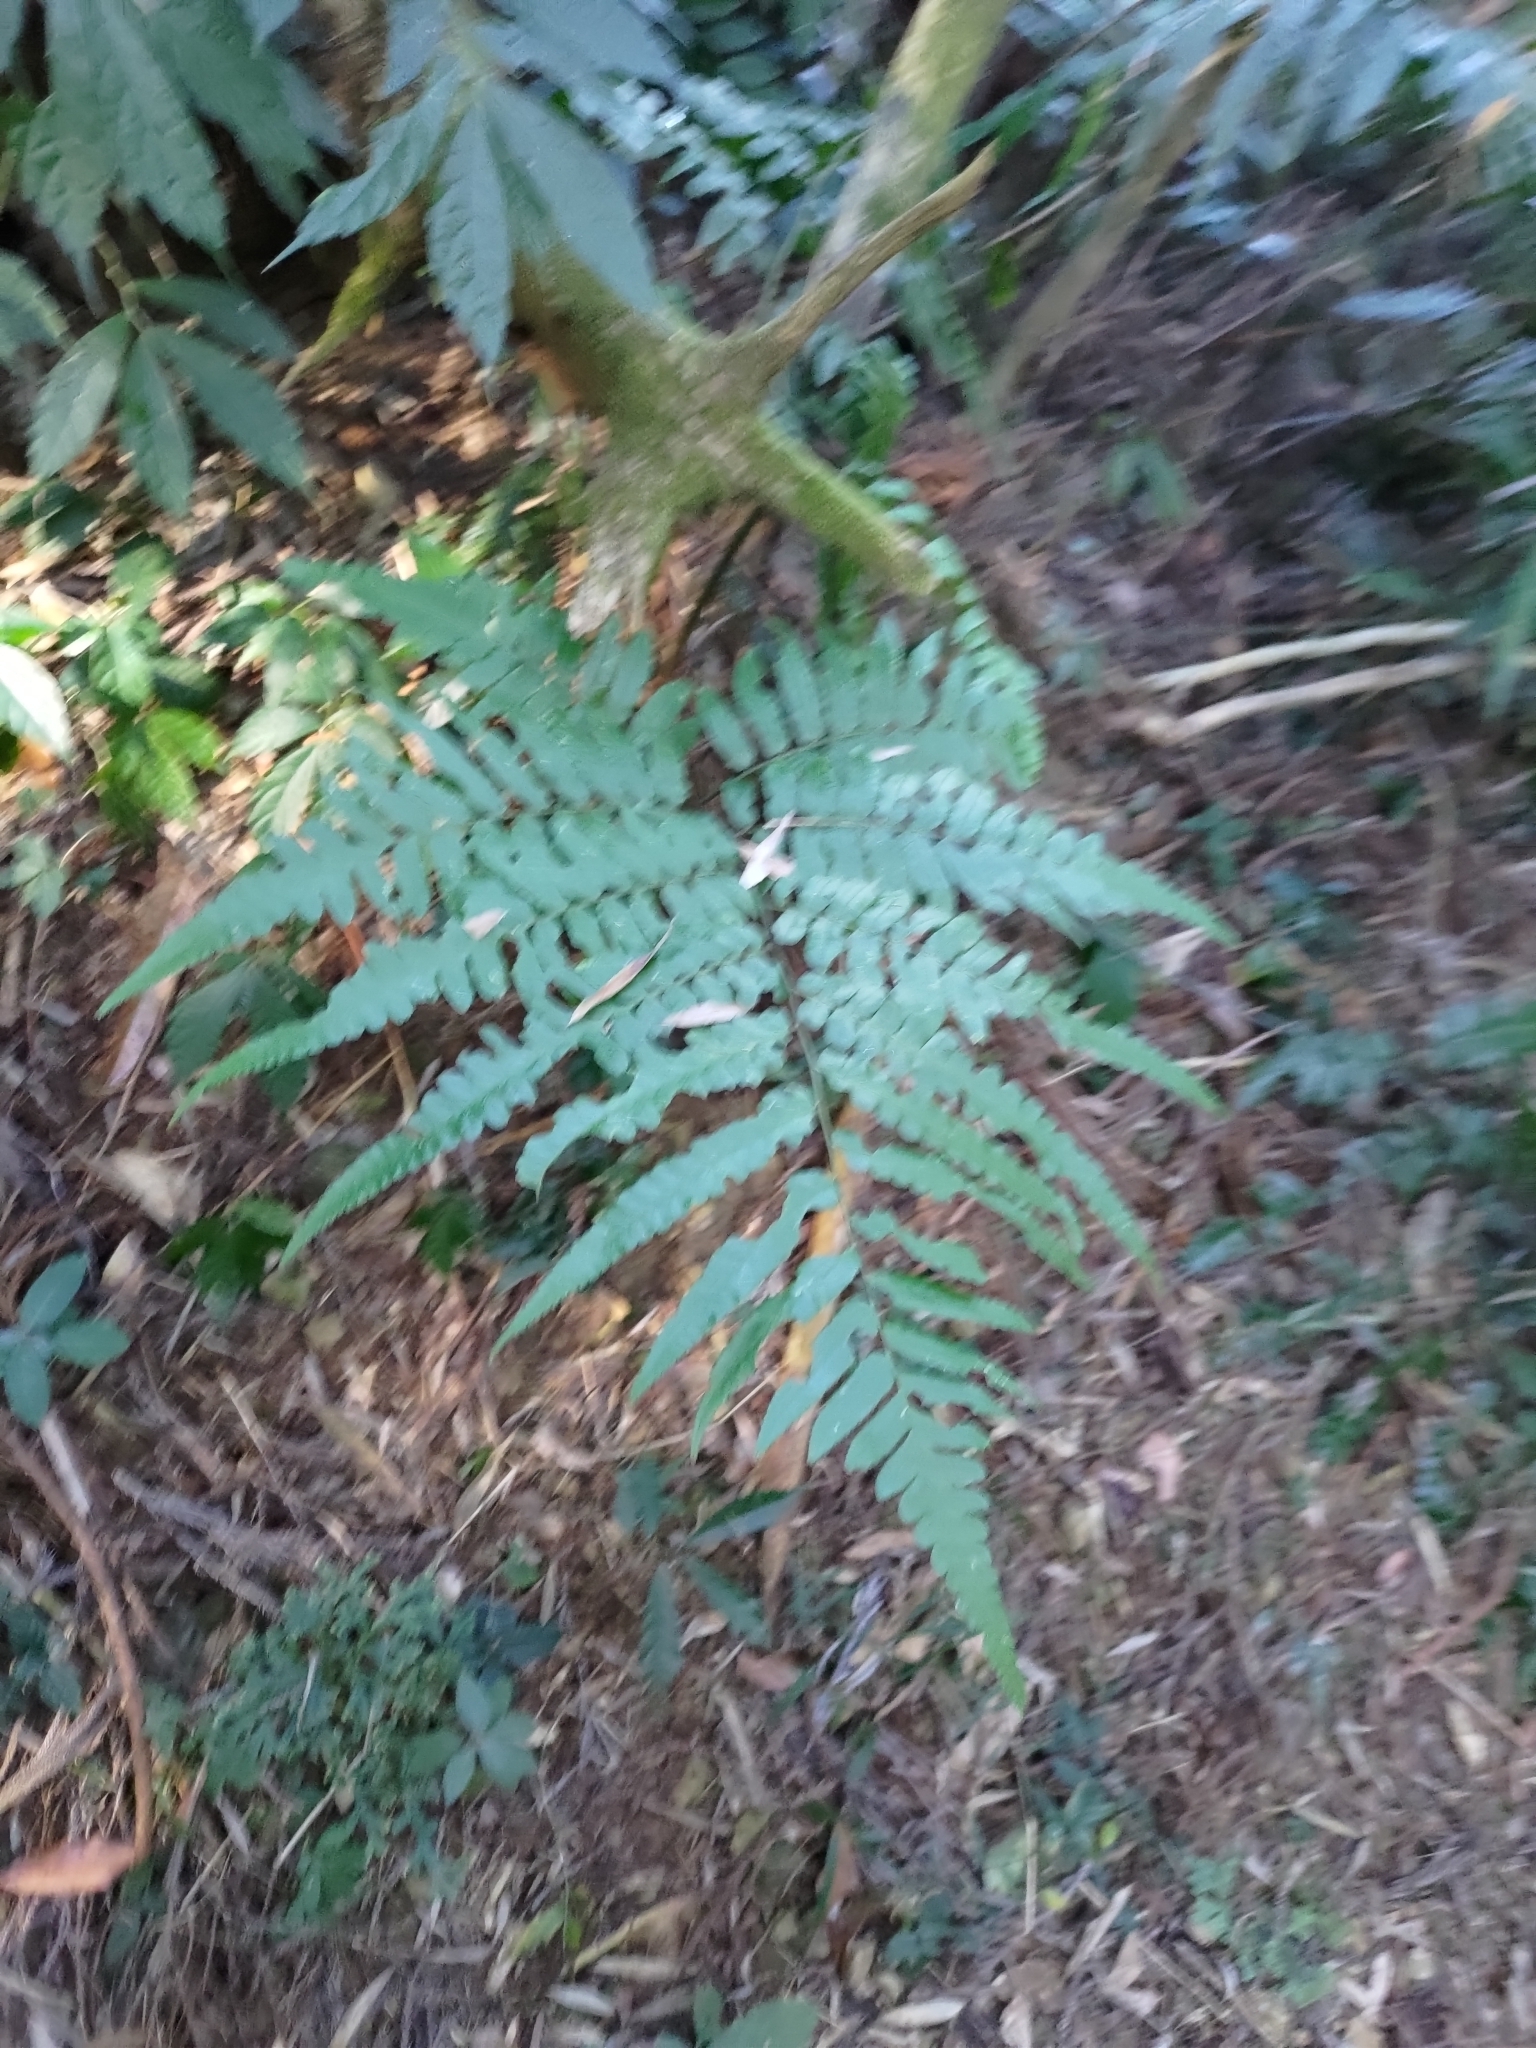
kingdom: Plantae
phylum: Tracheophyta
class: Polypodiopsida
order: Polypodiales
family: Athyriaceae
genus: Diplazium
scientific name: Diplazium dilatatum
